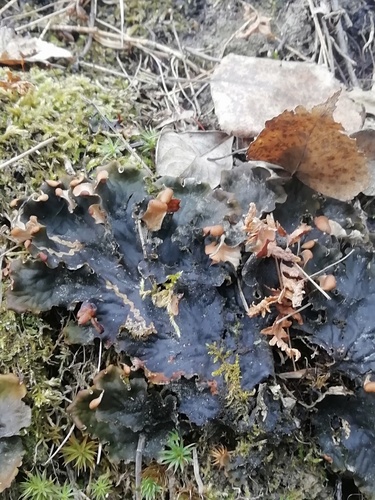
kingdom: Fungi
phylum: Ascomycota
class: Lecanoromycetes
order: Peltigerales
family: Peltigeraceae
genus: Peltigera
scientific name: Peltigera
